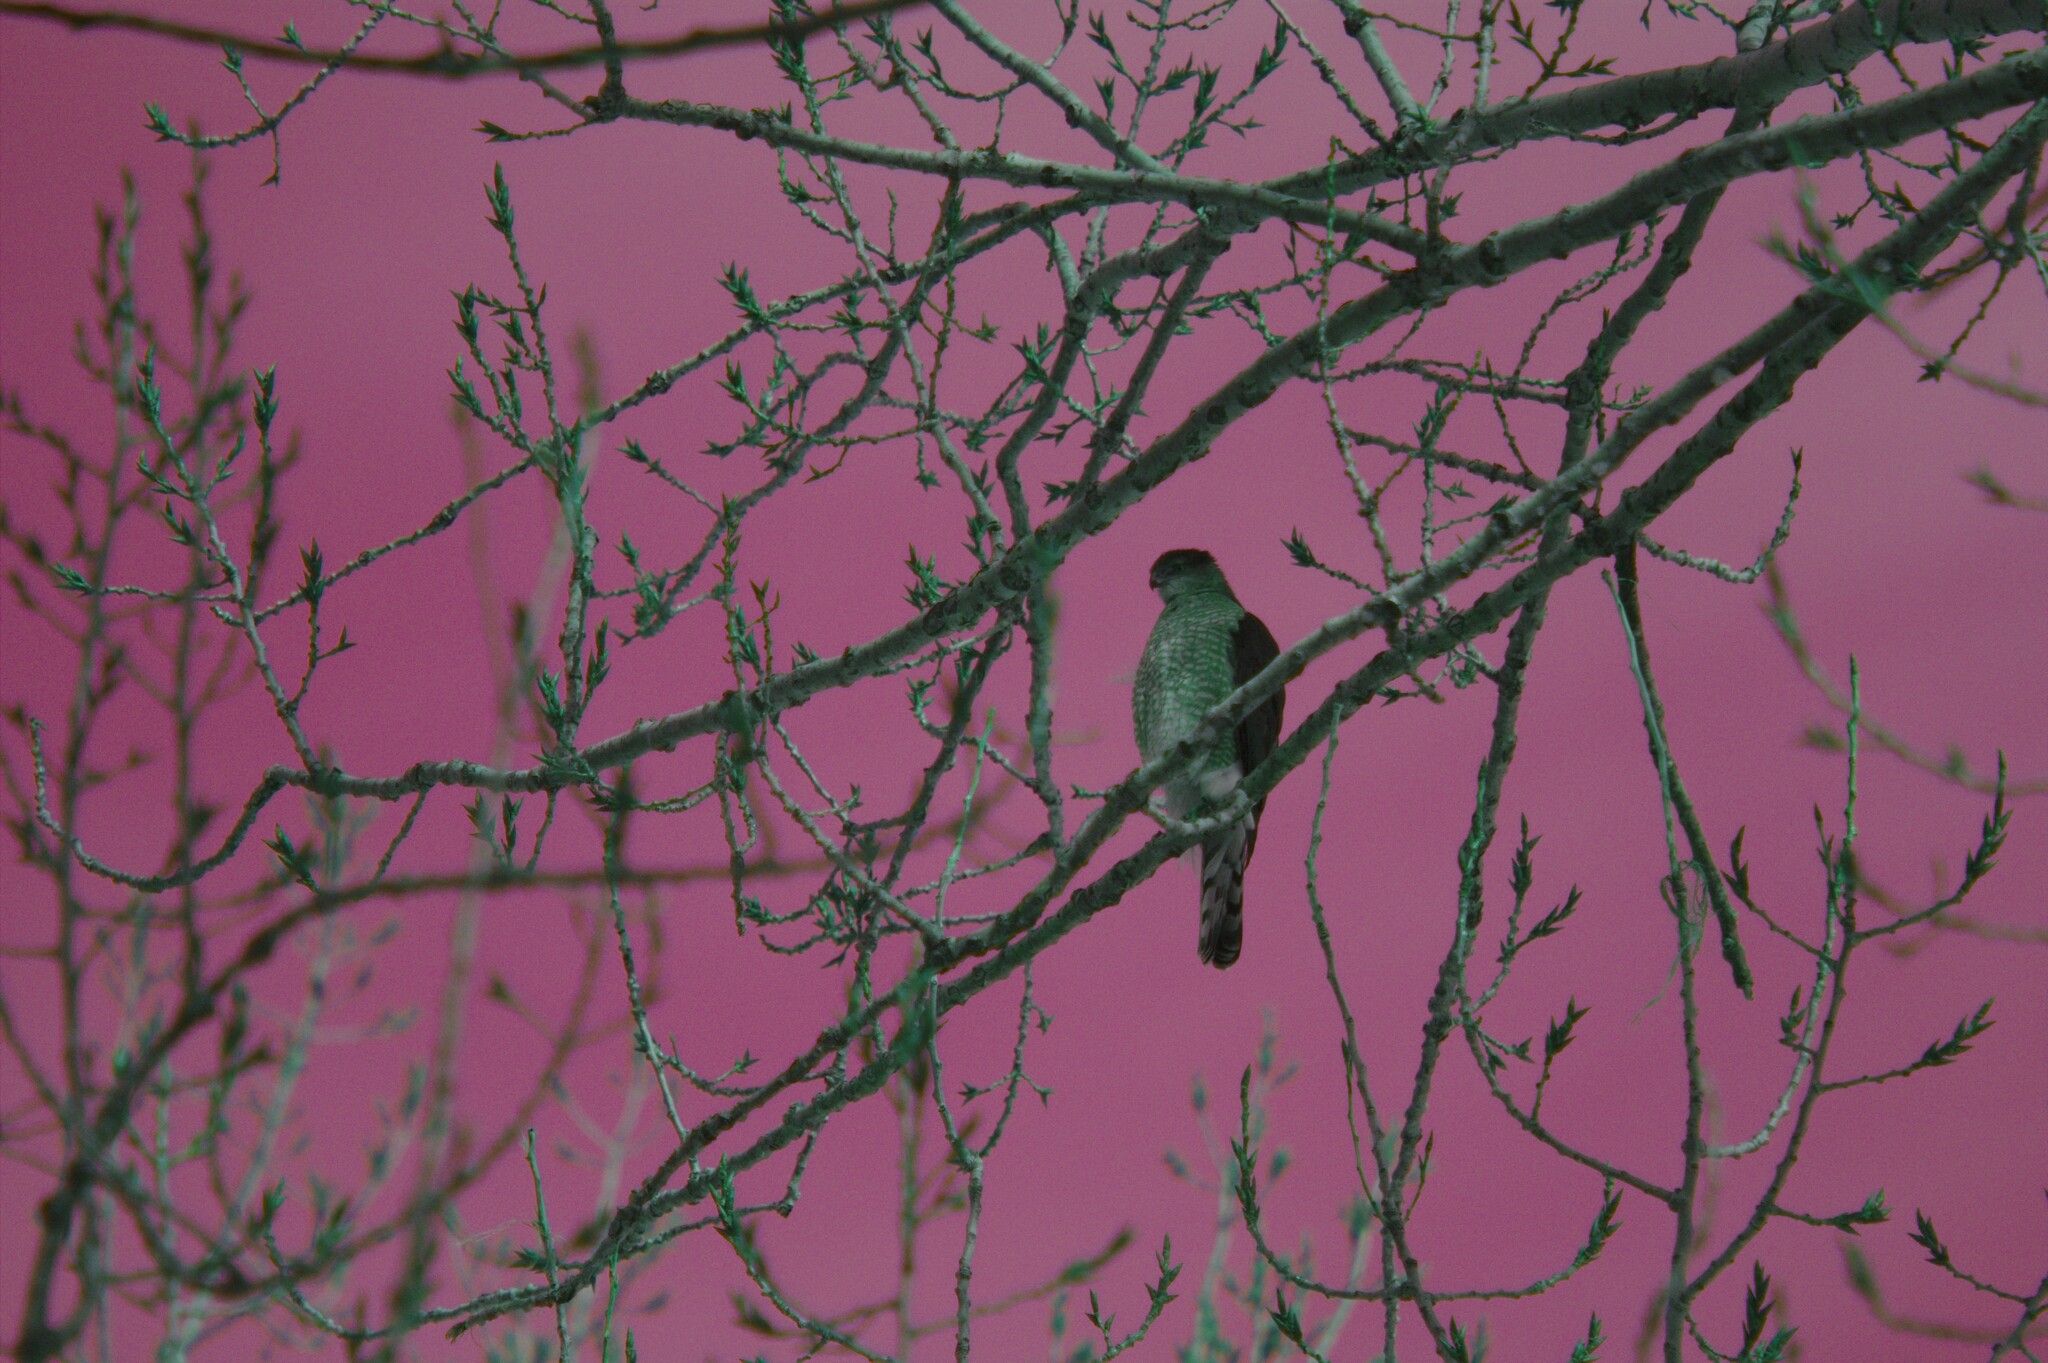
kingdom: Animalia
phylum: Chordata
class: Aves
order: Accipitriformes
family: Accipitridae
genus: Accipiter
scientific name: Accipiter cooperii
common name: Cooper's hawk
